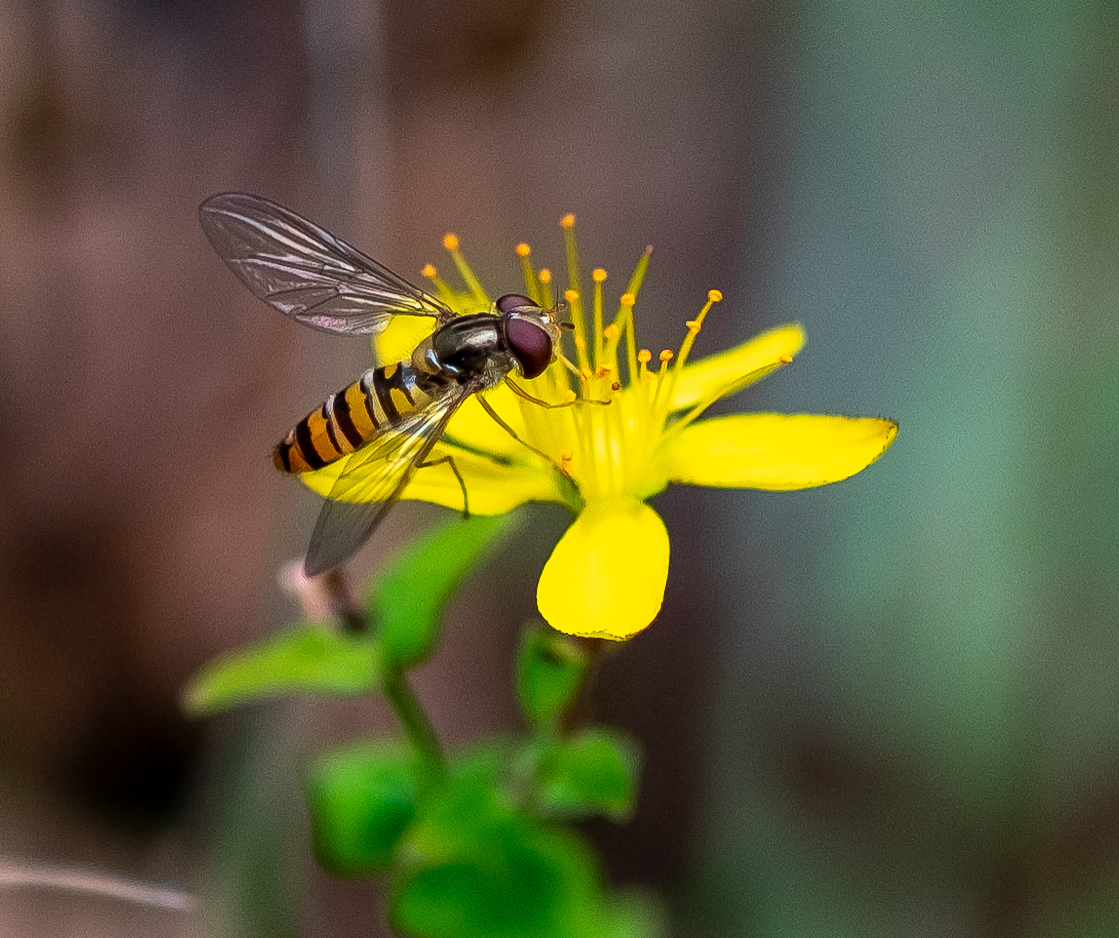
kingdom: Animalia
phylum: Arthropoda
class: Insecta
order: Diptera
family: Syrphidae
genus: Episyrphus
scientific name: Episyrphus balteatus
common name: Marmalade hoverfly
